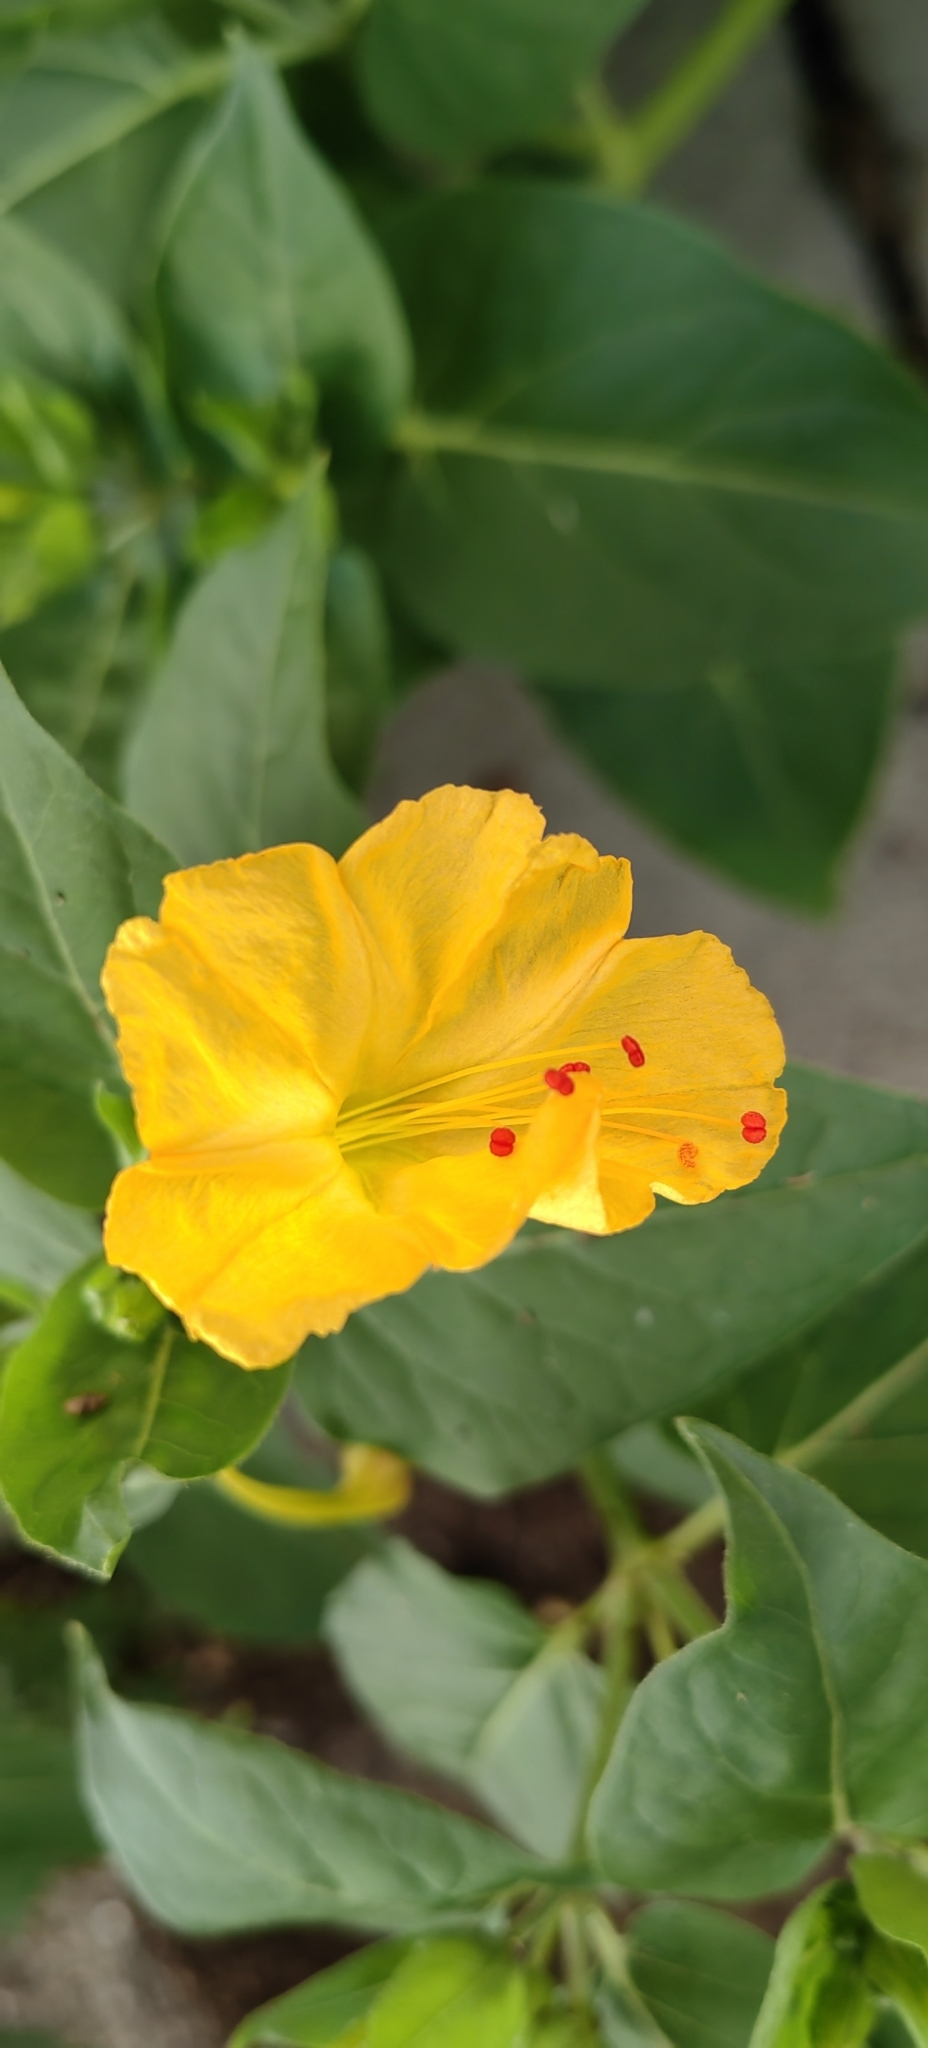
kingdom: Plantae
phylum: Tracheophyta
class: Magnoliopsida
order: Caryophyllales
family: Nyctaginaceae
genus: Mirabilis
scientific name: Mirabilis jalapa
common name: Marvel-of-peru
